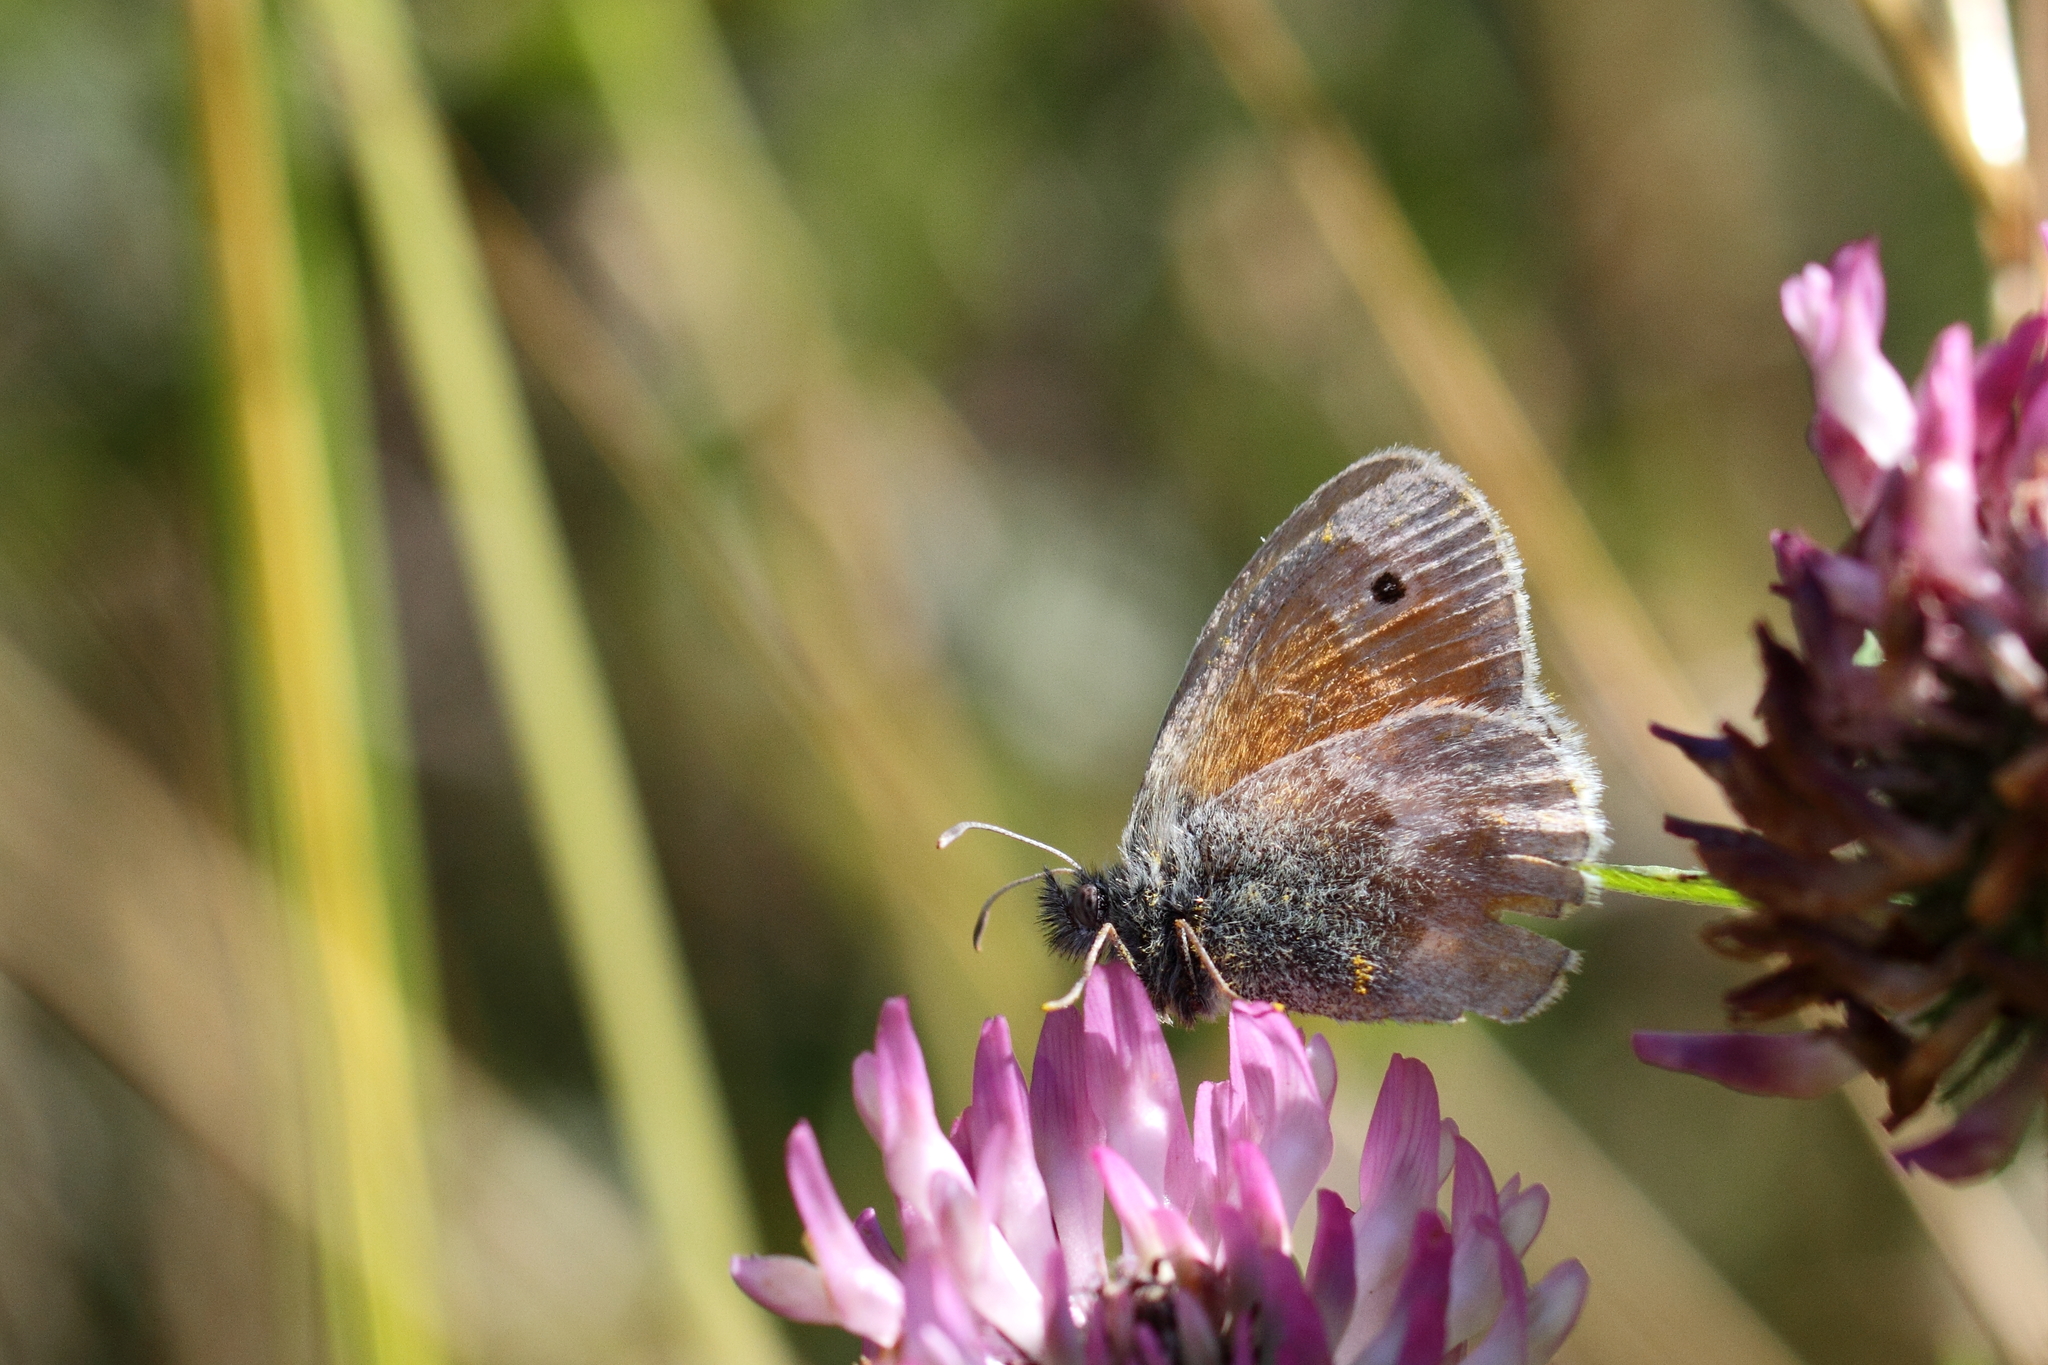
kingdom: Animalia
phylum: Arthropoda
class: Insecta
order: Lepidoptera
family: Nymphalidae
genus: Coenonympha
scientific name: Coenonympha pamphilus
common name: Small heath
